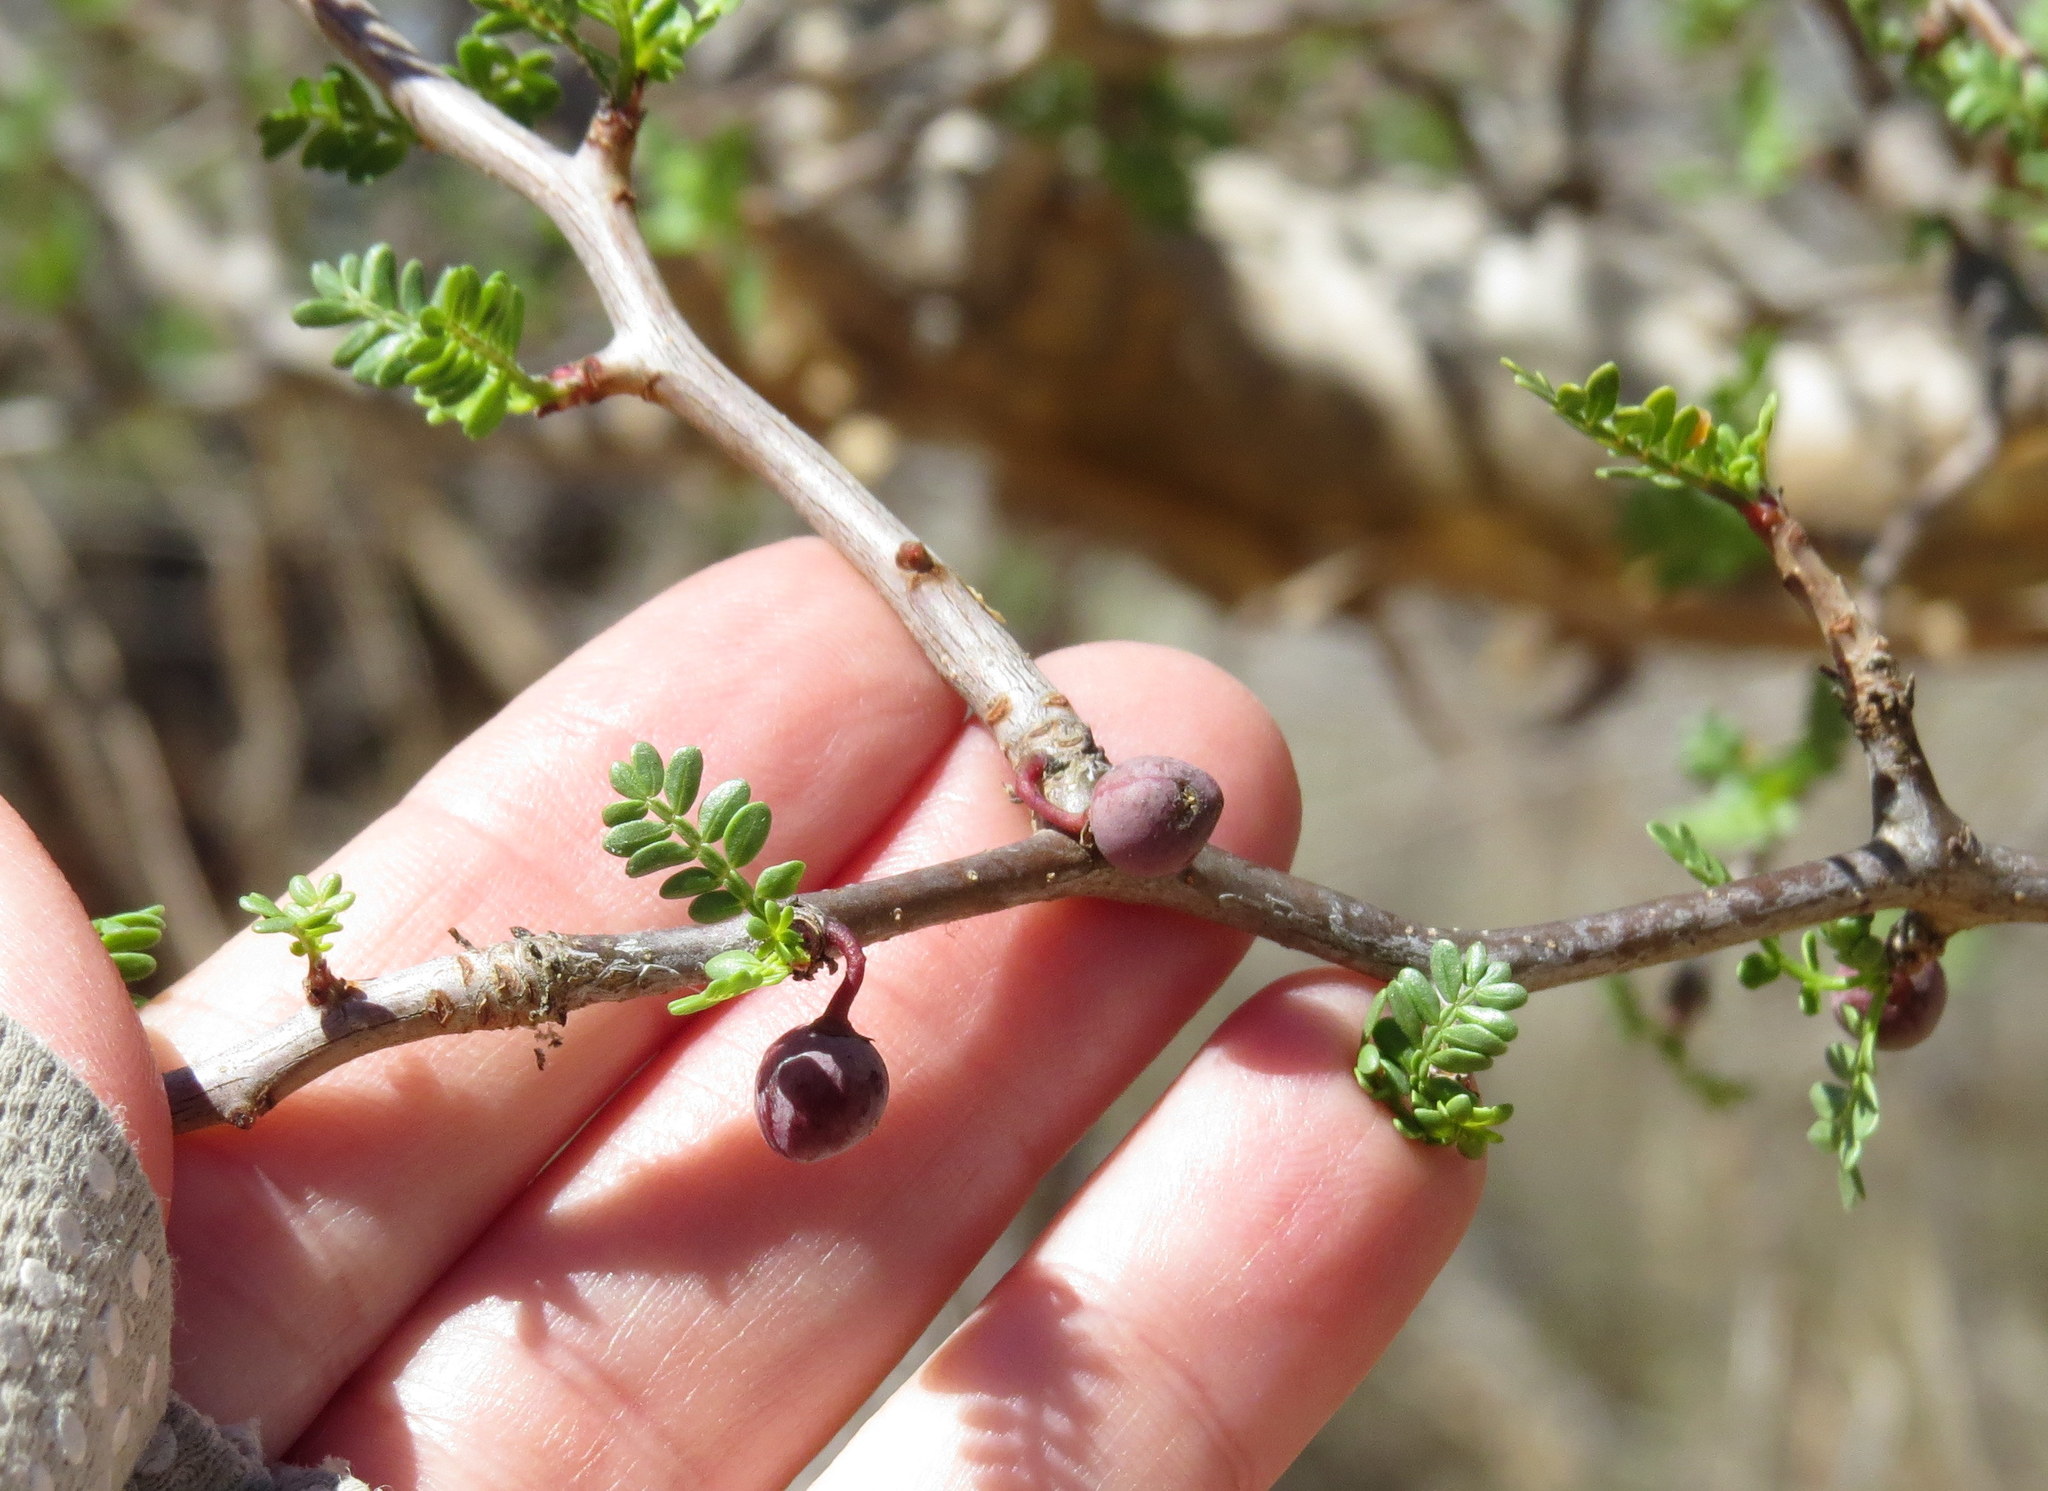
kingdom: Plantae
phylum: Tracheophyta
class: Magnoliopsida
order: Sapindales
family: Burseraceae
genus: Bursera
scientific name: Bursera microphylla
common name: Elephant tree
